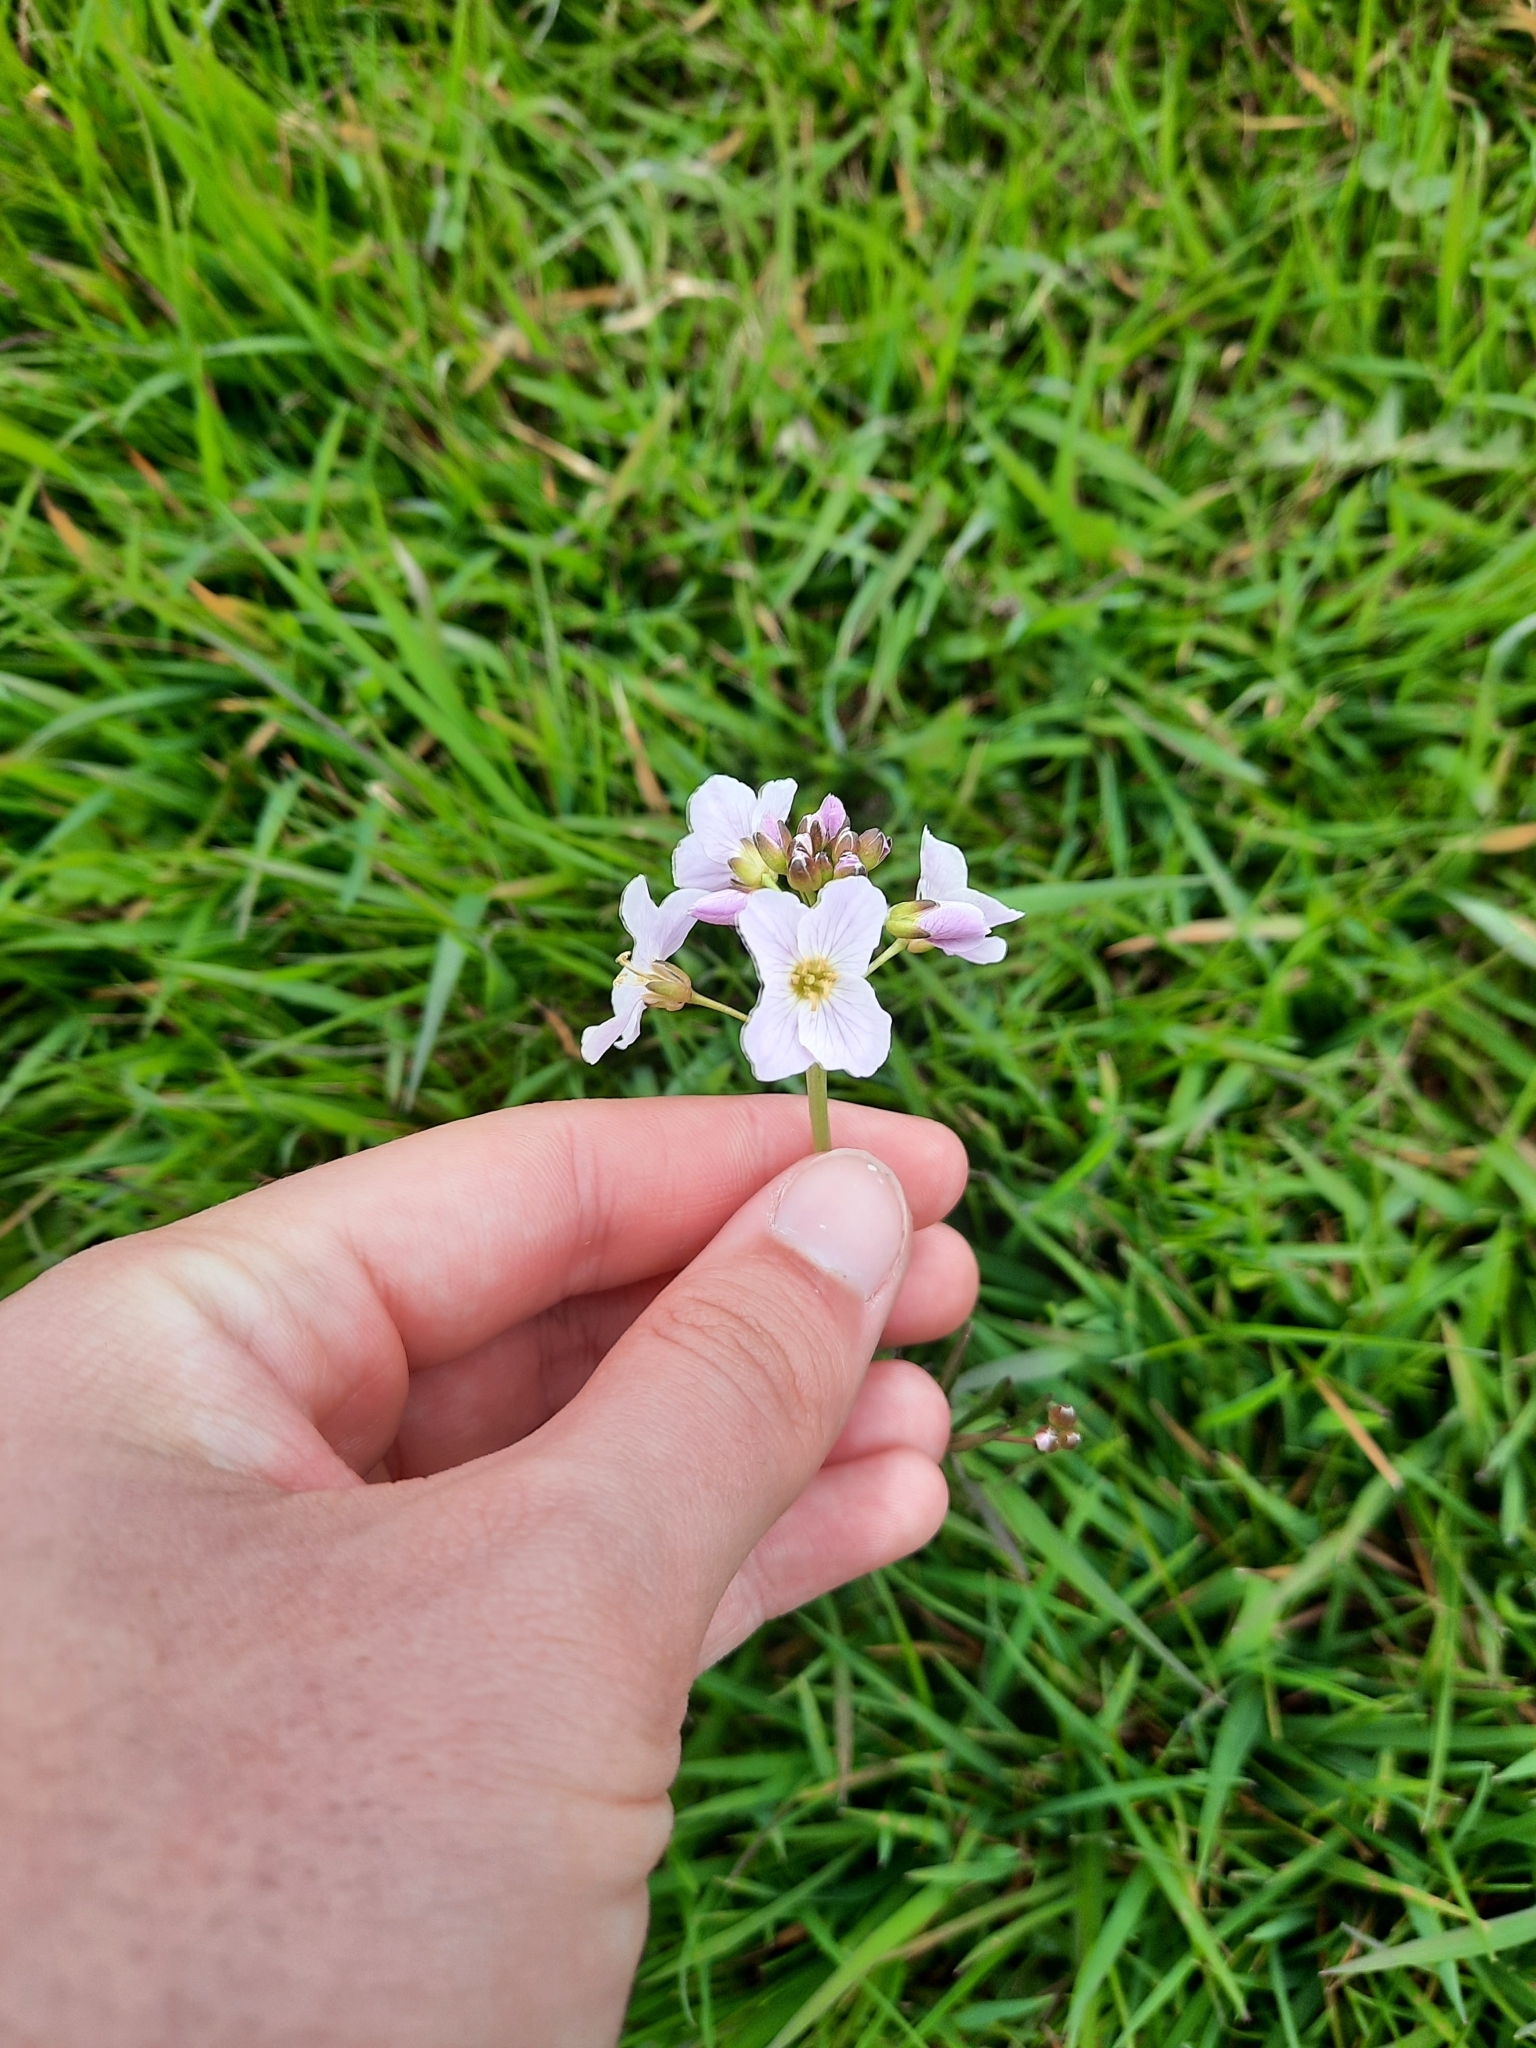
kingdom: Plantae
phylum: Tracheophyta
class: Magnoliopsida
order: Brassicales
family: Brassicaceae
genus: Cardamine
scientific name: Cardamine pratensis
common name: Cuckoo flower
